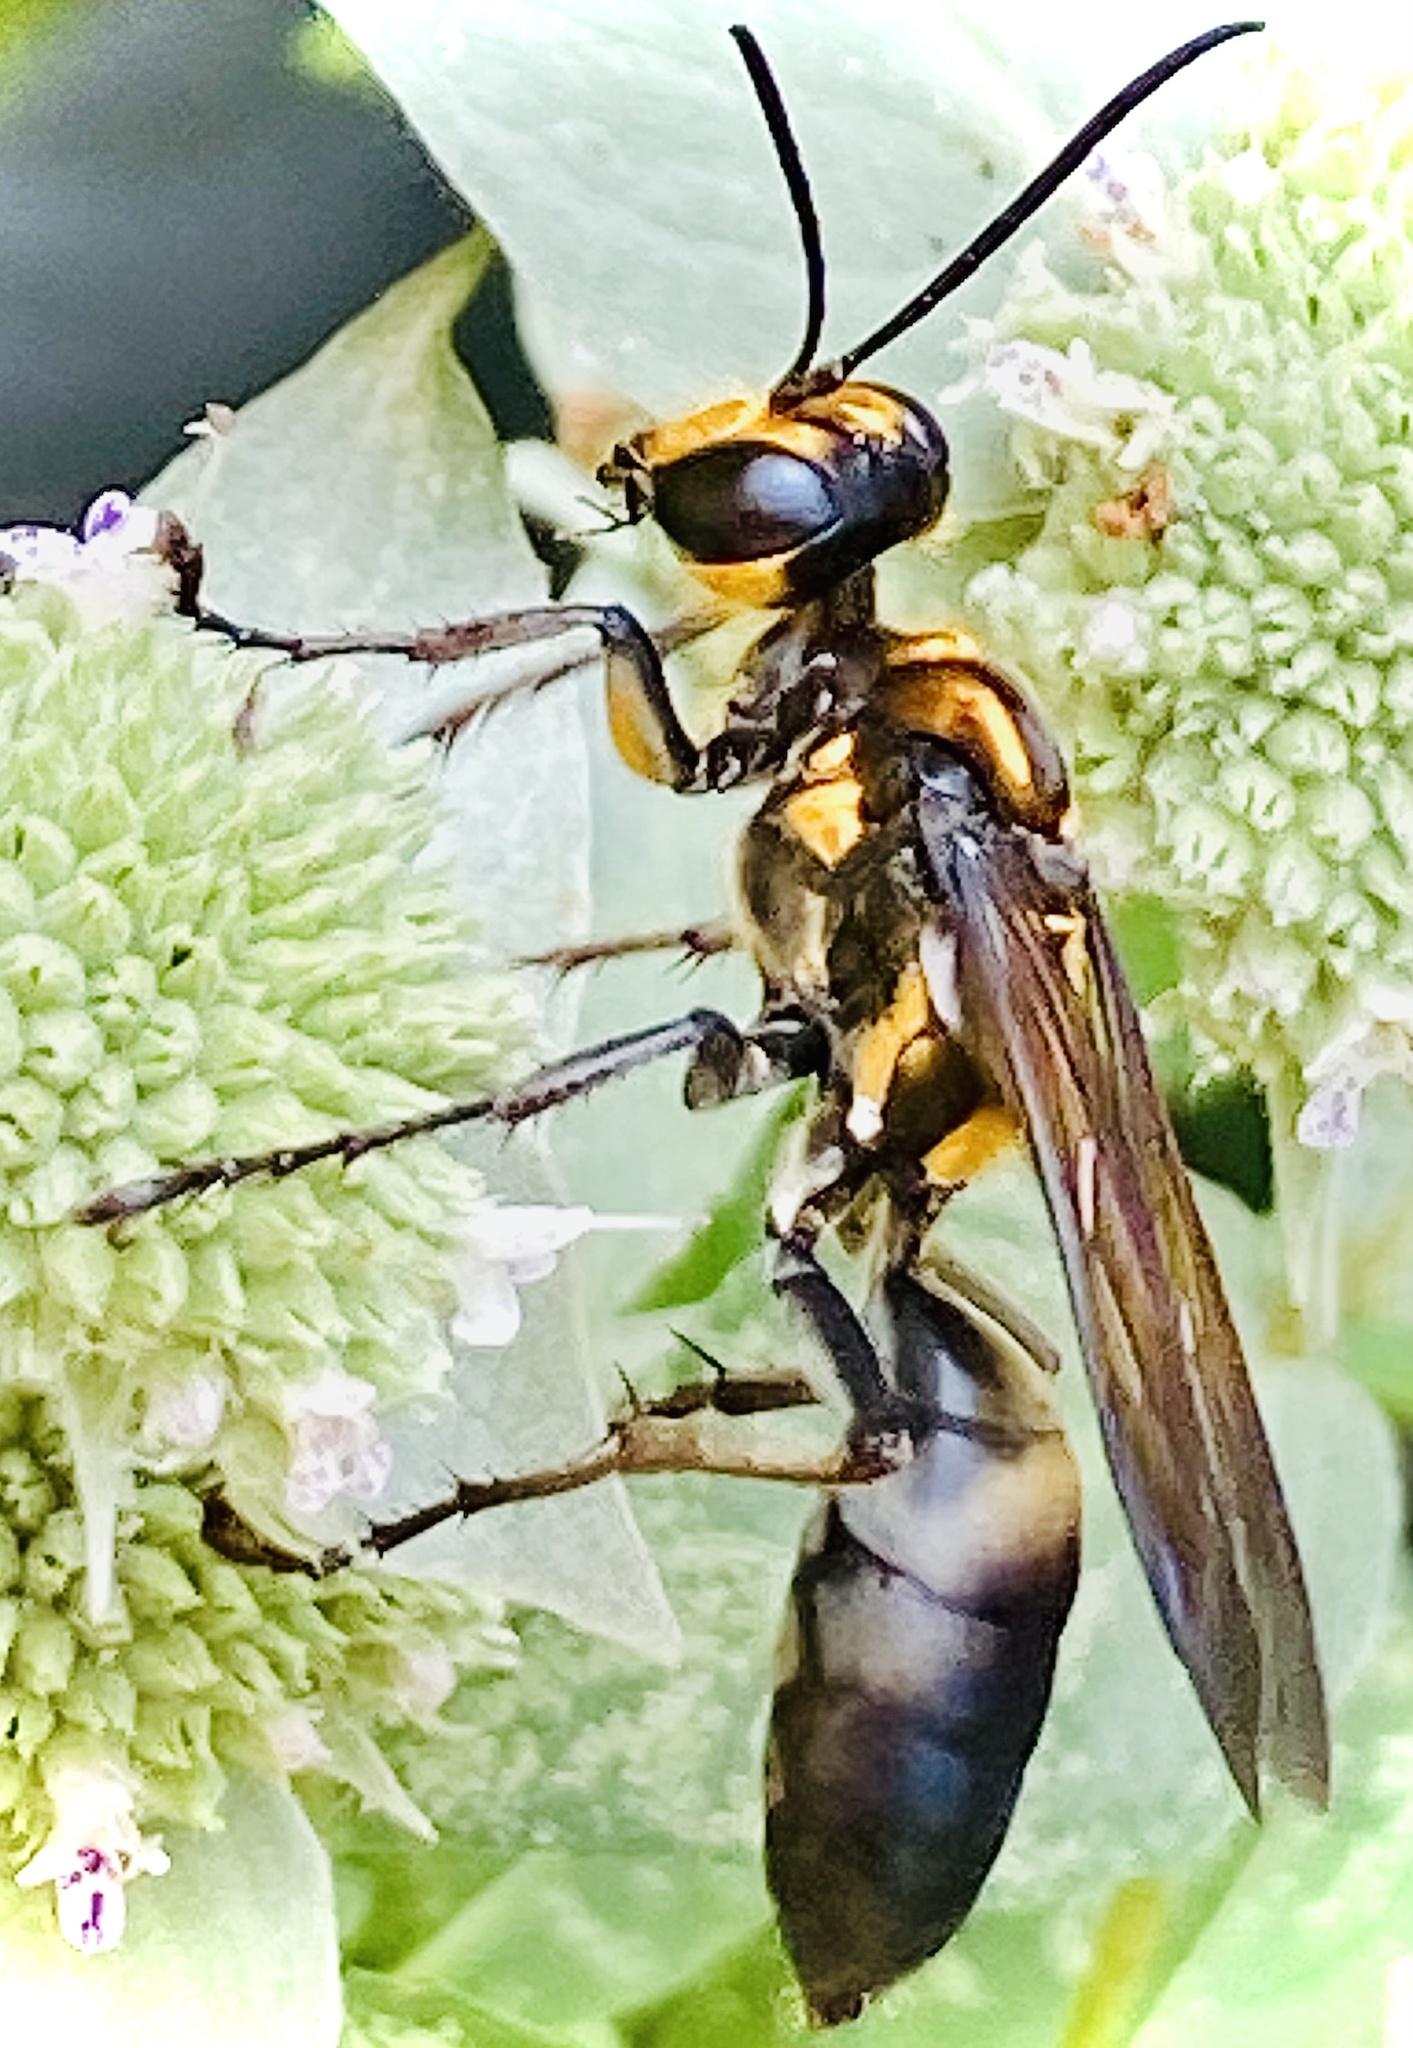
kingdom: Animalia
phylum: Arthropoda
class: Insecta
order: Hymenoptera
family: Sphecidae
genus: Sphex
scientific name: Sphex habenus
